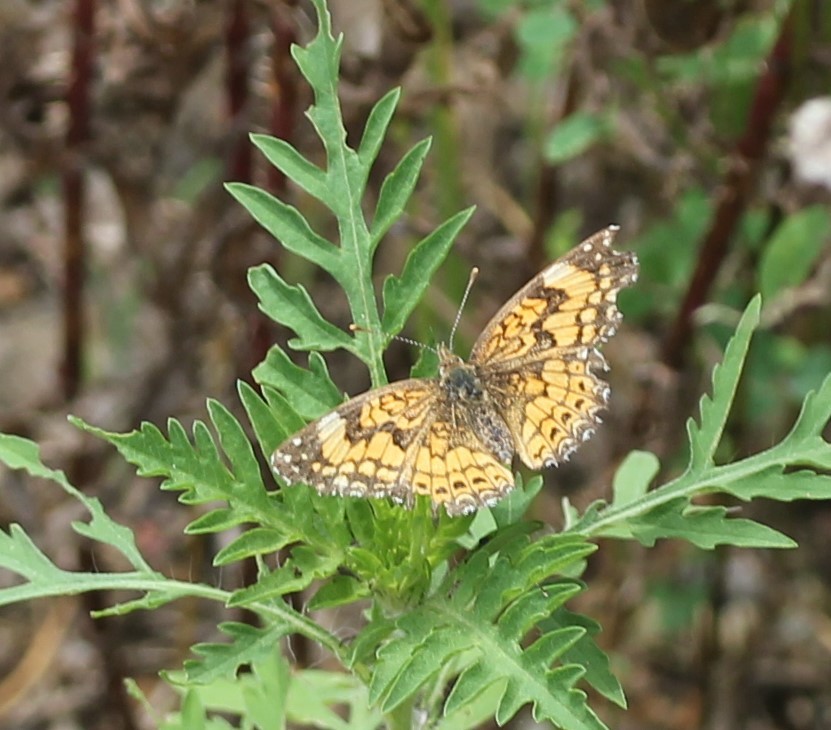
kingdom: Animalia
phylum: Arthropoda
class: Insecta
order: Lepidoptera
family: Nymphalidae
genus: Chlosyne
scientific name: Chlosyne gorgone
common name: Gorgone checkerspot
